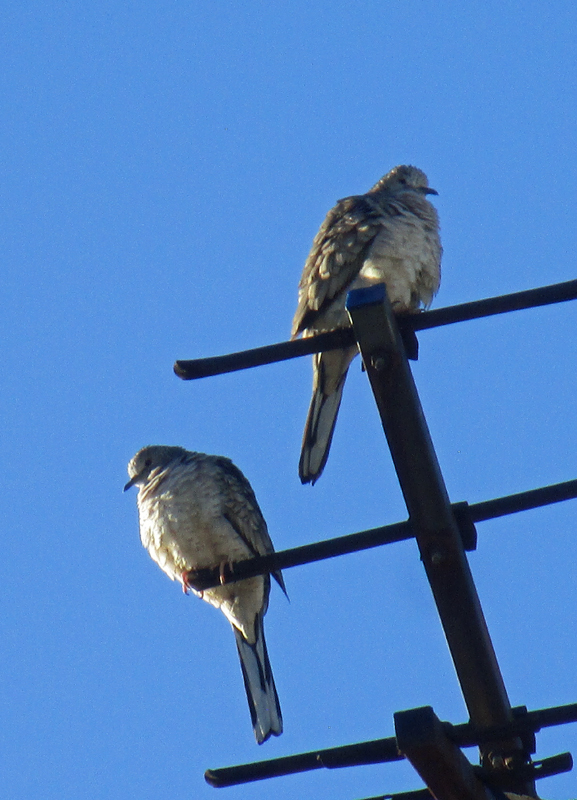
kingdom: Animalia
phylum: Chordata
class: Aves
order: Columbiformes
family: Columbidae
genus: Columbina
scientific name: Columbina inca
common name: Inca dove
